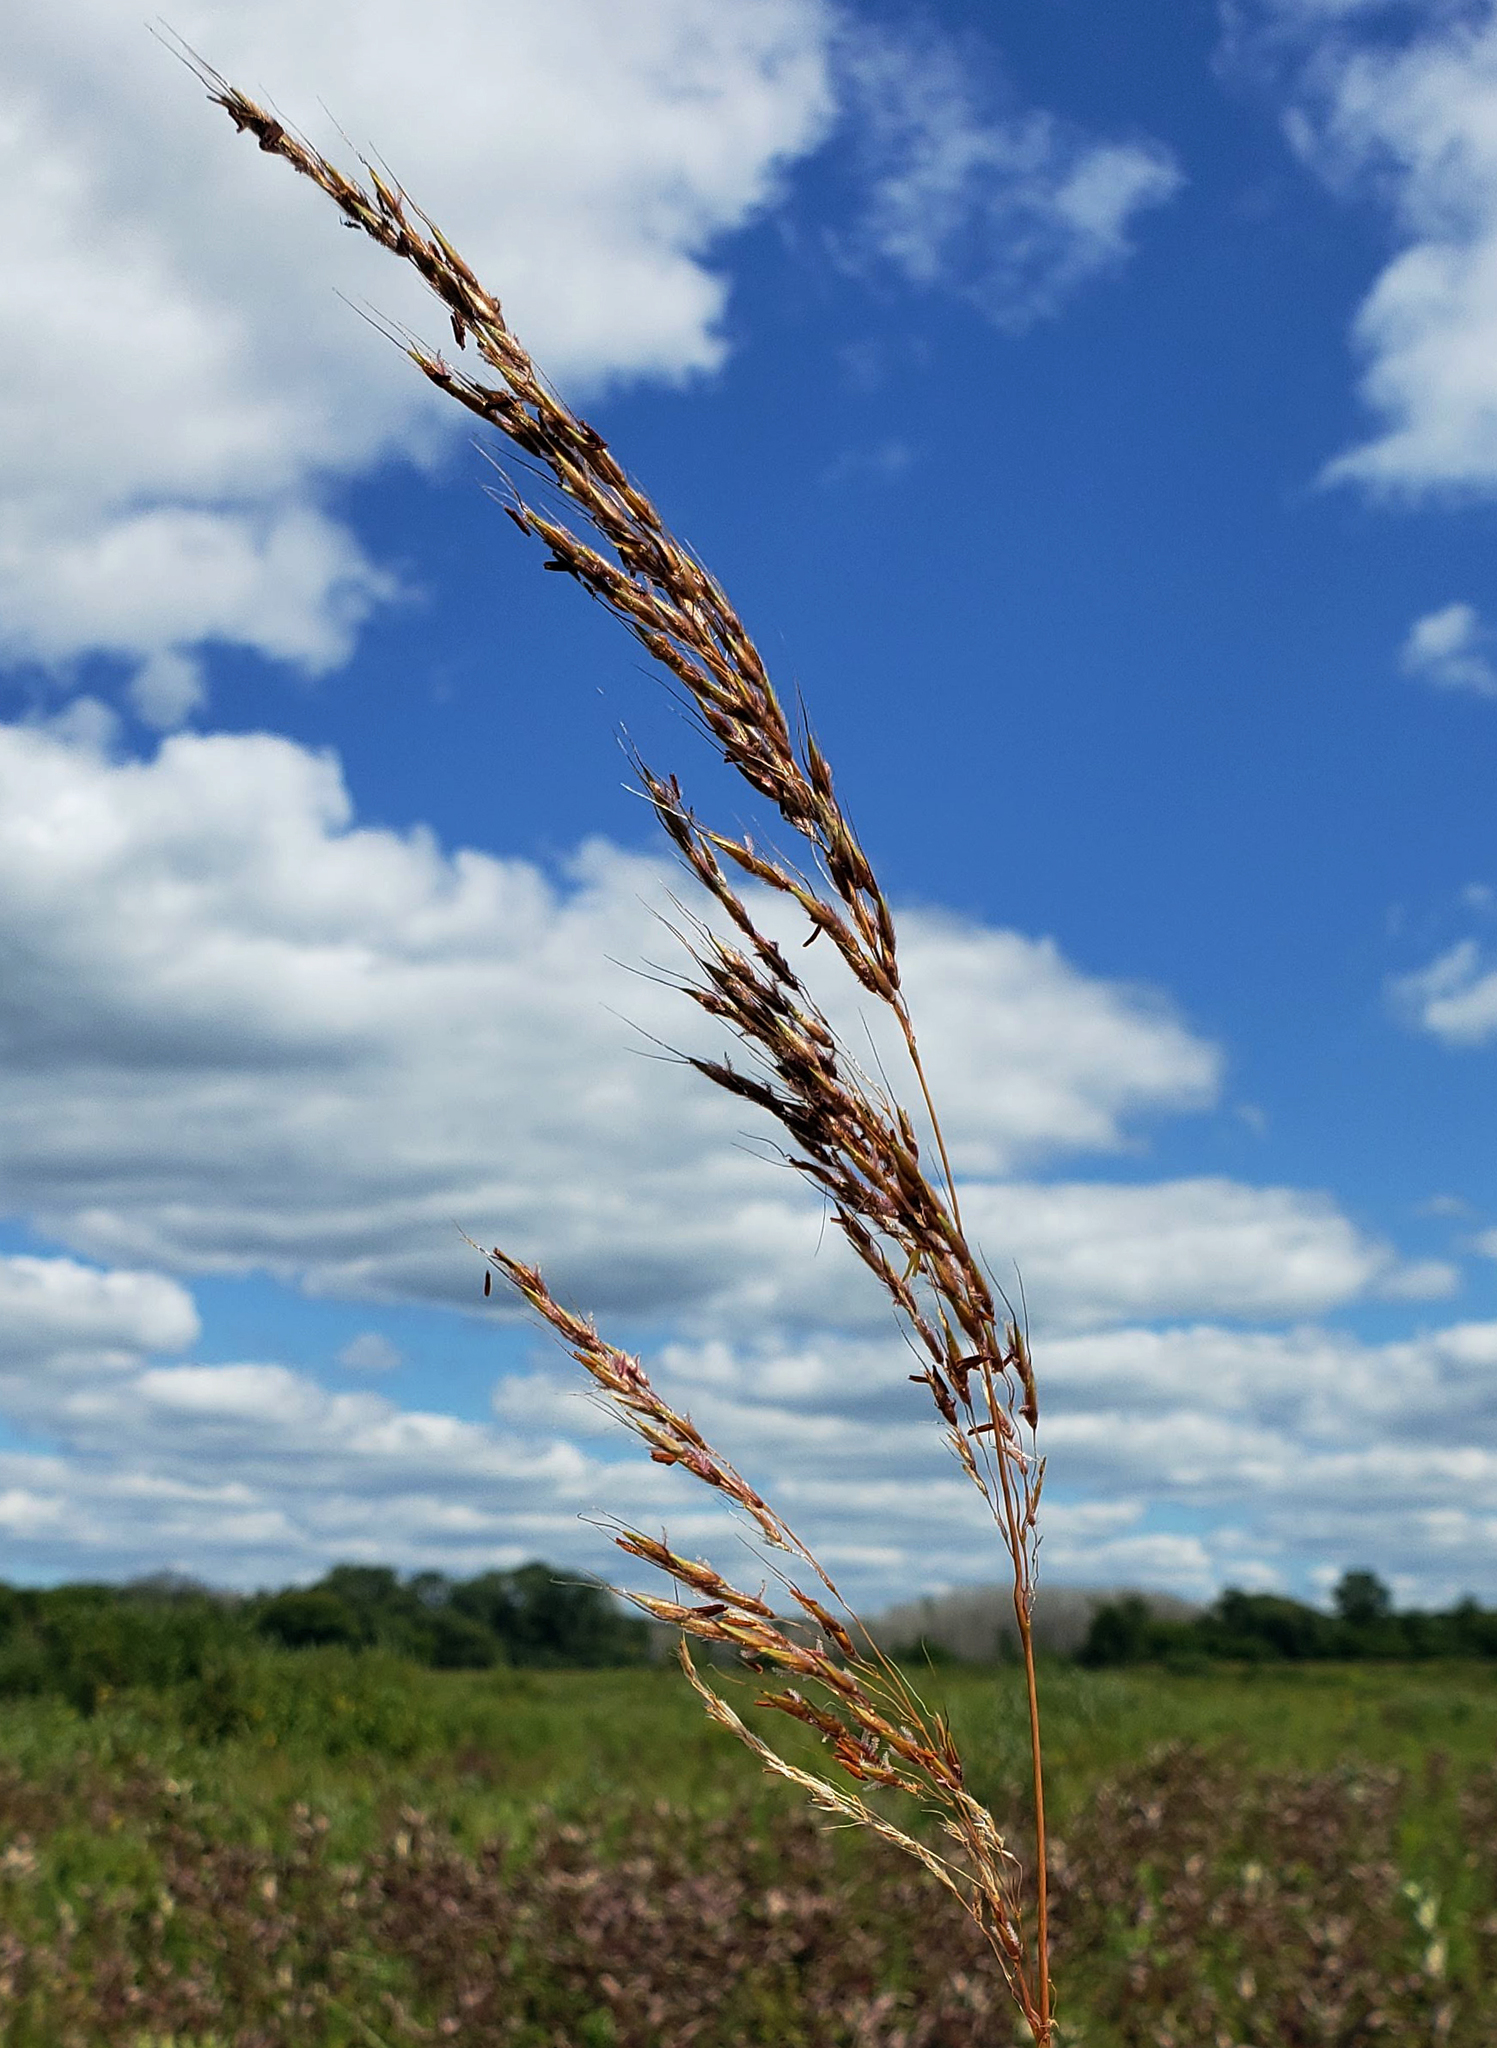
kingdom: Plantae
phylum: Tracheophyta
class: Liliopsida
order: Poales
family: Poaceae
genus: Sorghastrum
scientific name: Sorghastrum nutans
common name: Indian grass
